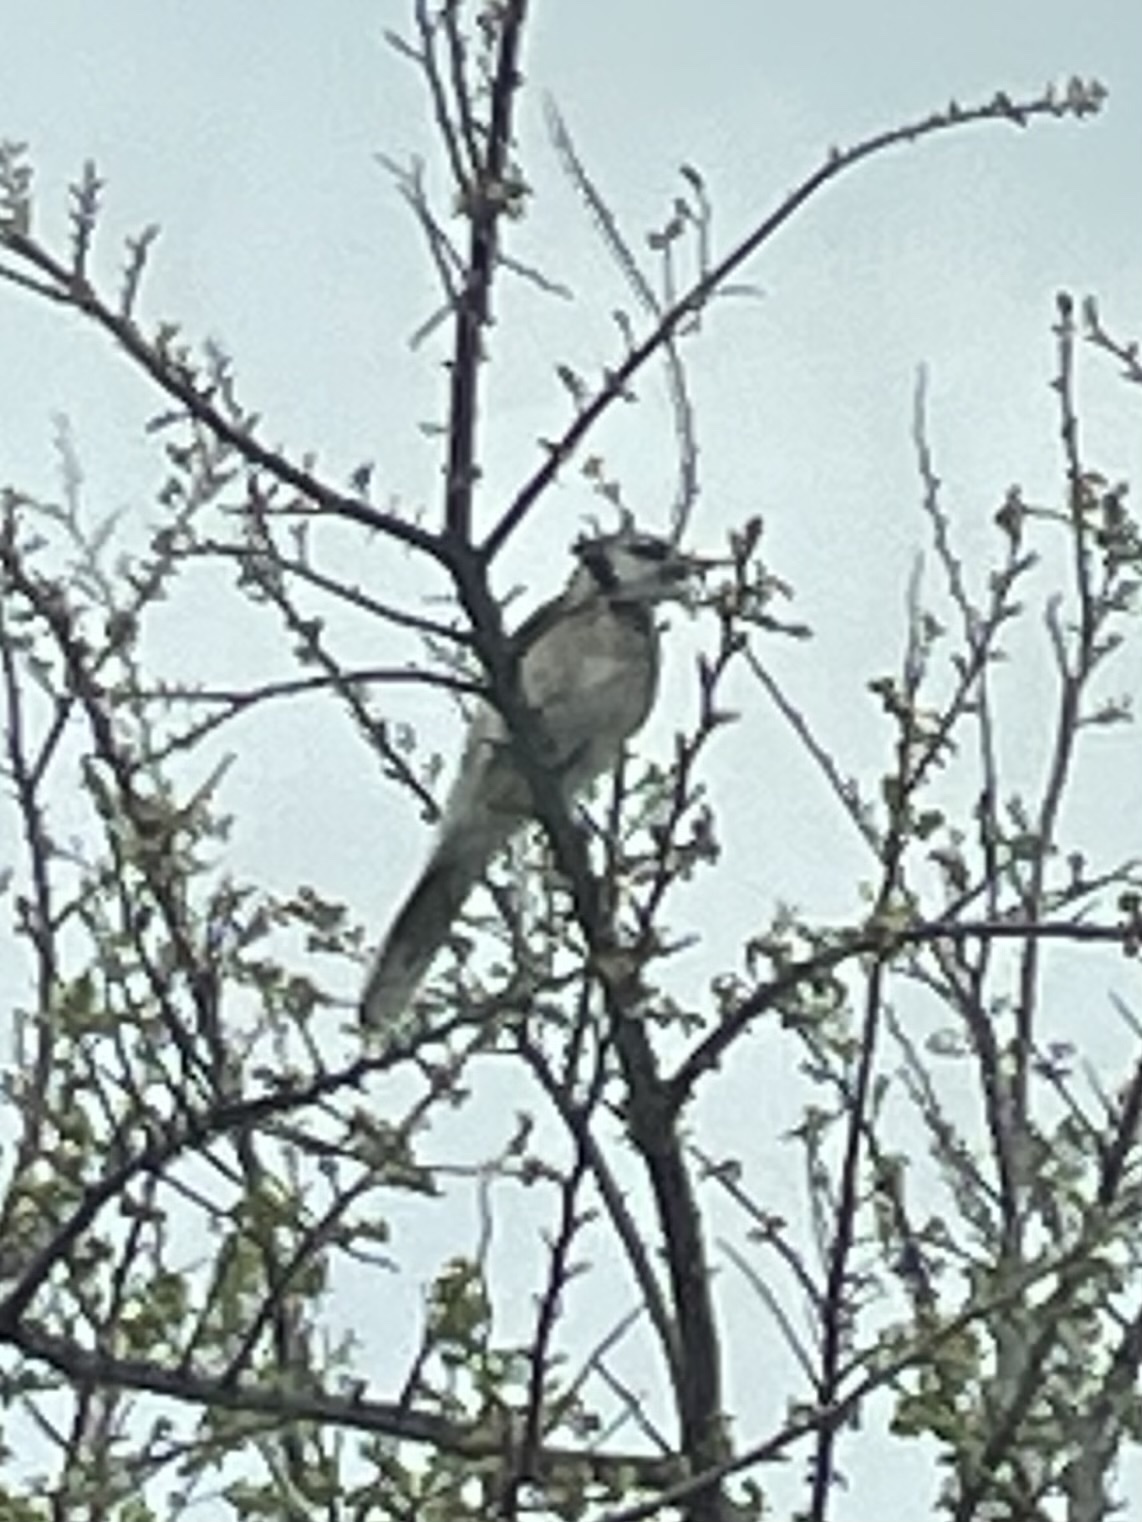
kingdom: Animalia
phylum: Chordata
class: Aves
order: Passeriformes
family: Corvidae
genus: Cyanocitta
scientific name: Cyanocitta cristata
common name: Blue jay
